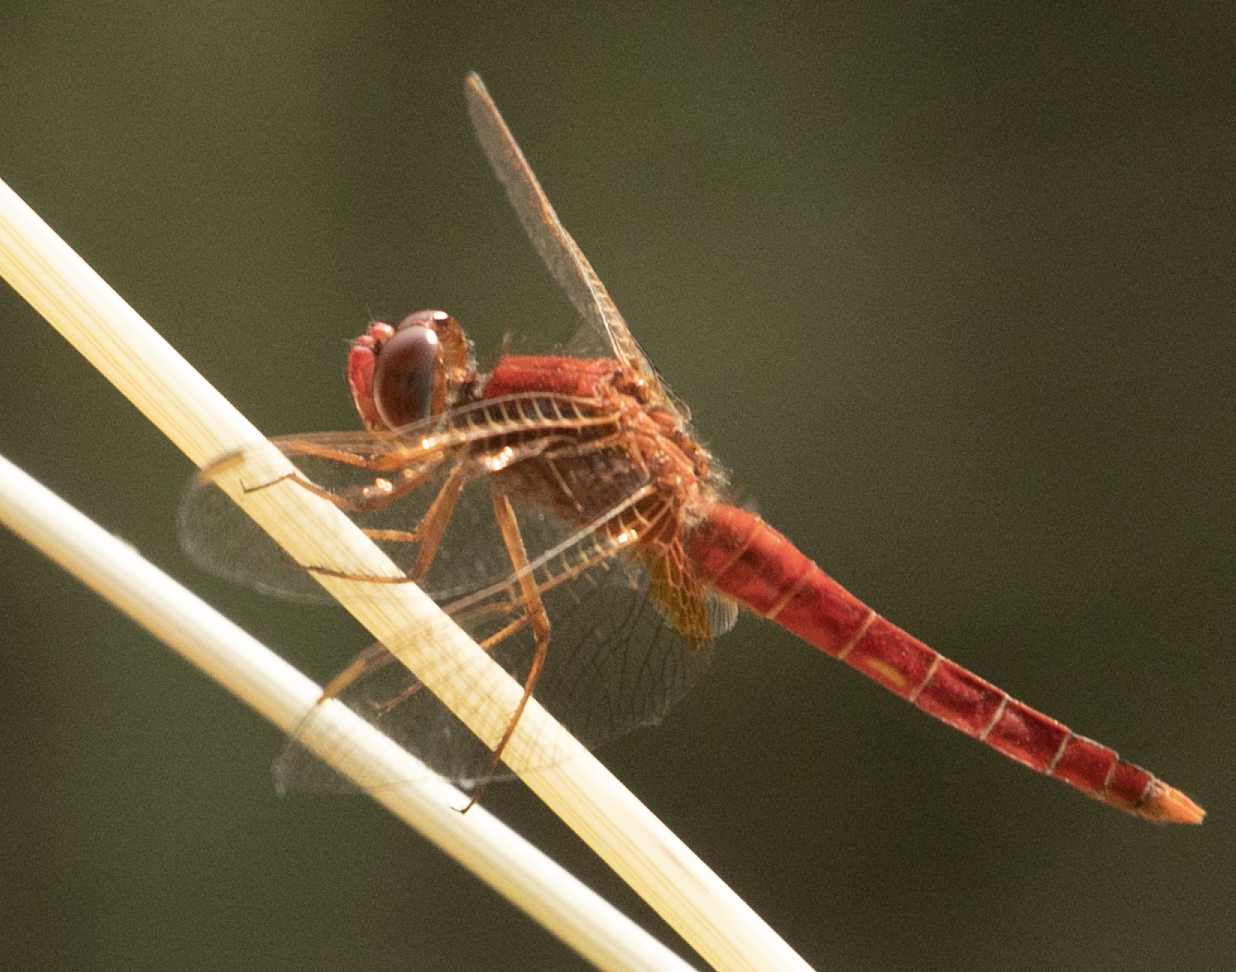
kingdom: Animalia
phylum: Arthropoda
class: Insecta
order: Odonata
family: Libellulidae
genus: Crocothemis
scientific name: Crocothemis erythraea
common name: Scarlet dragonfly
